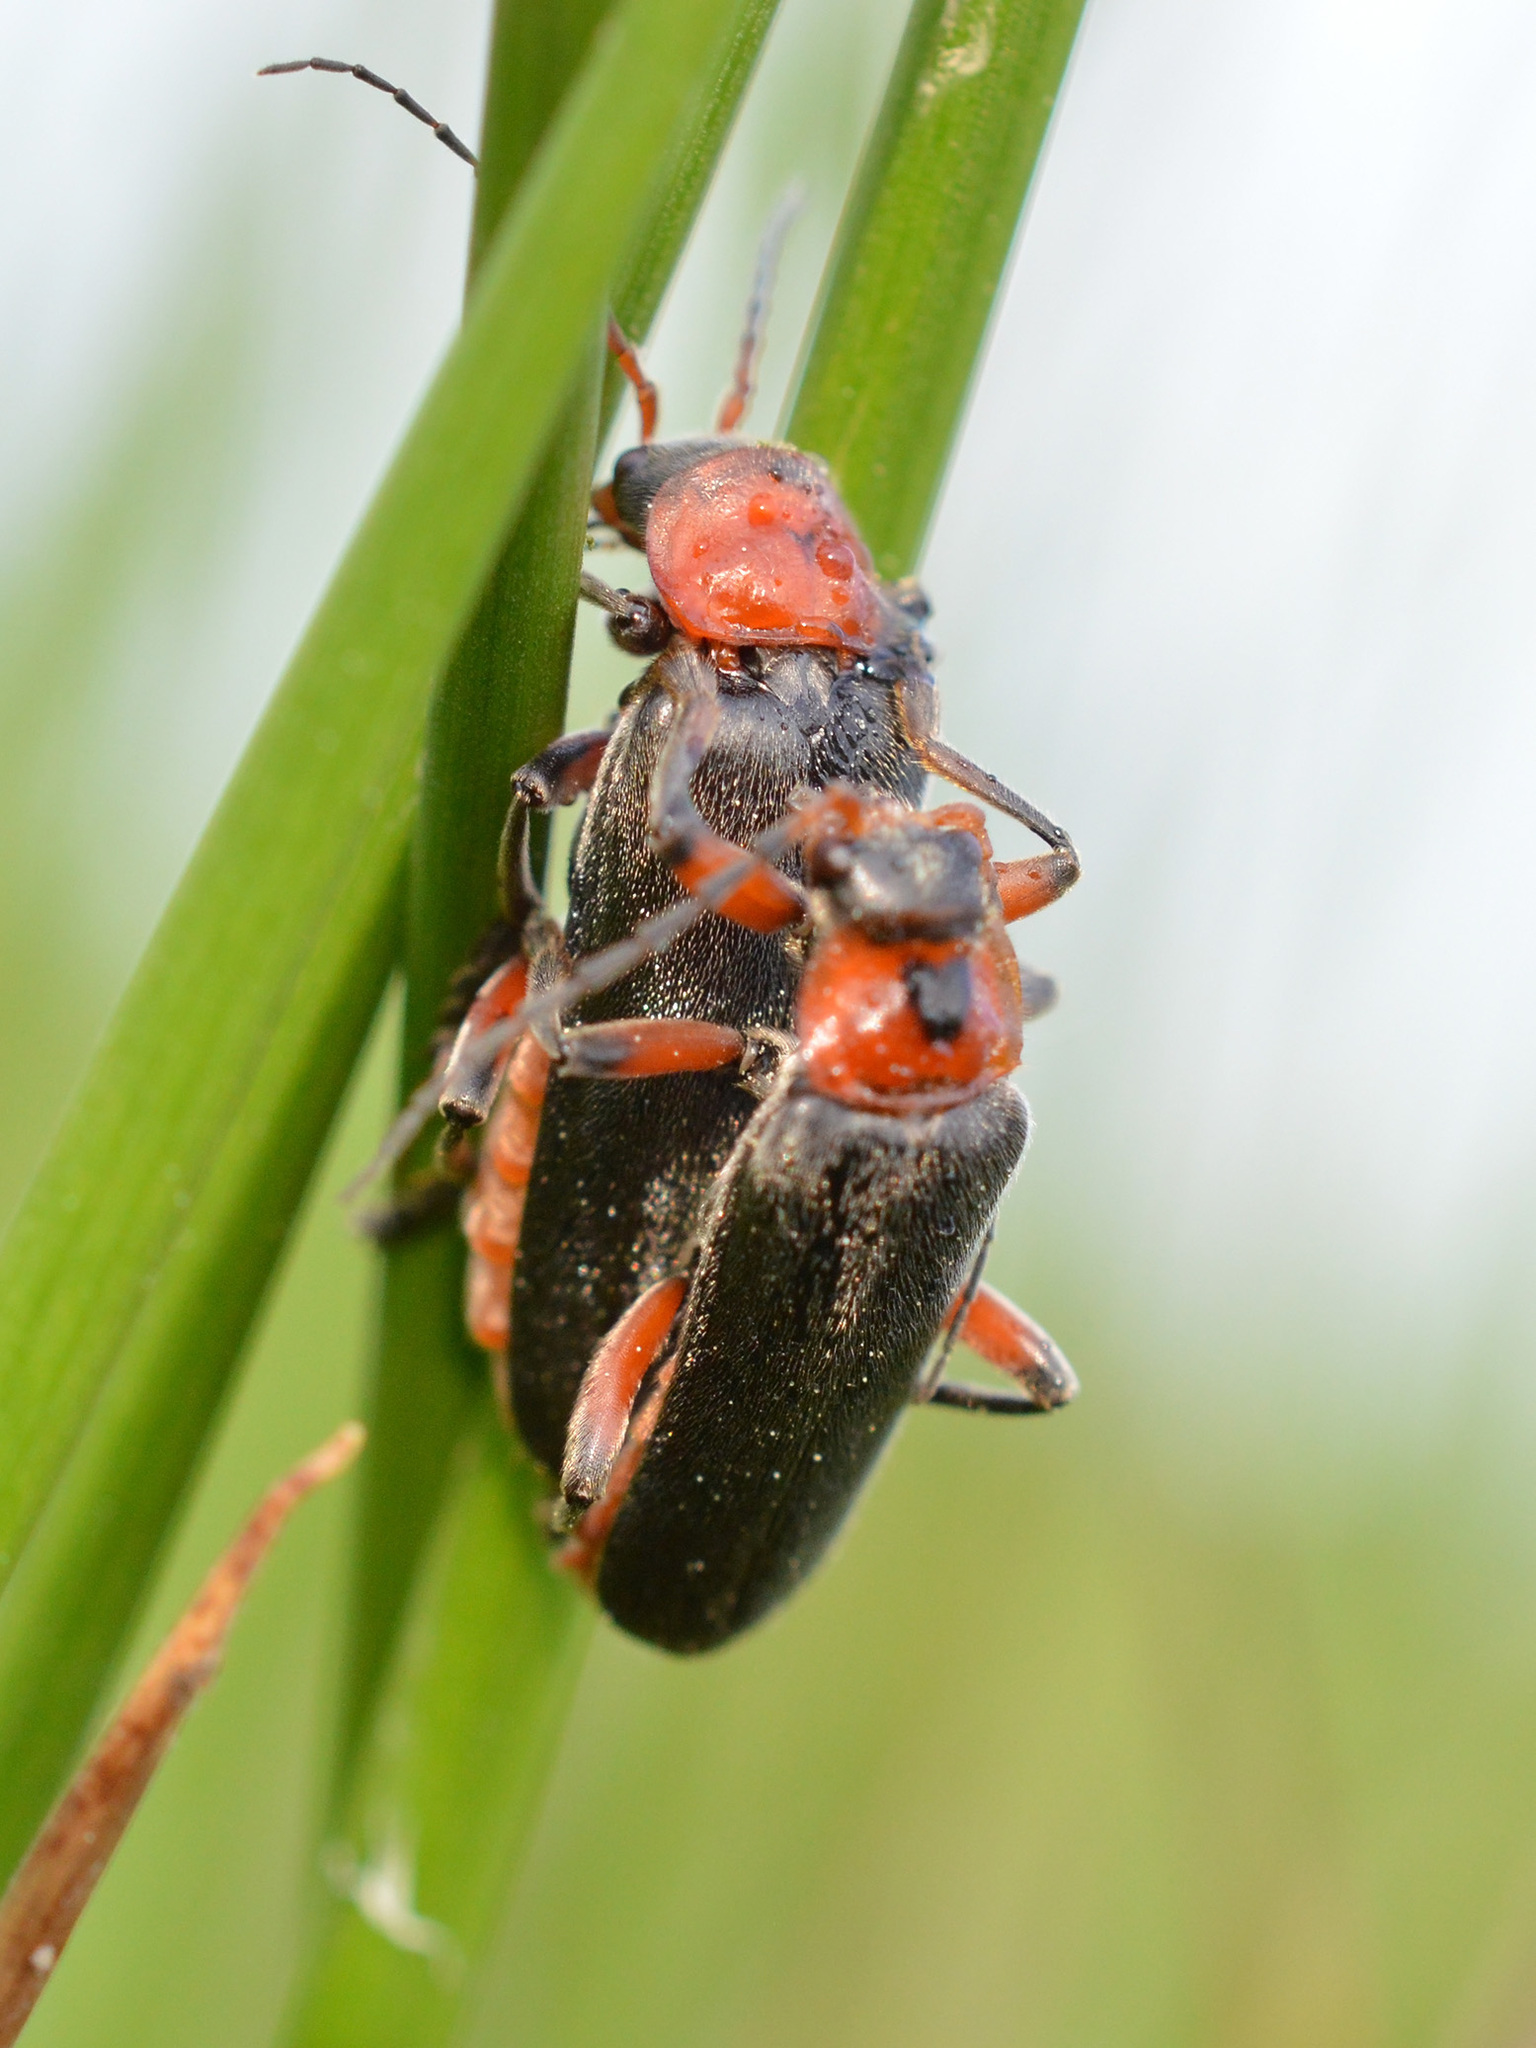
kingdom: Animalia
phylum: Arthropoda
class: Insecta
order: Coleoptera
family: Cantharidae
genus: Cantharis
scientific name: Cantharis rustica
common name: Soldier beetle
